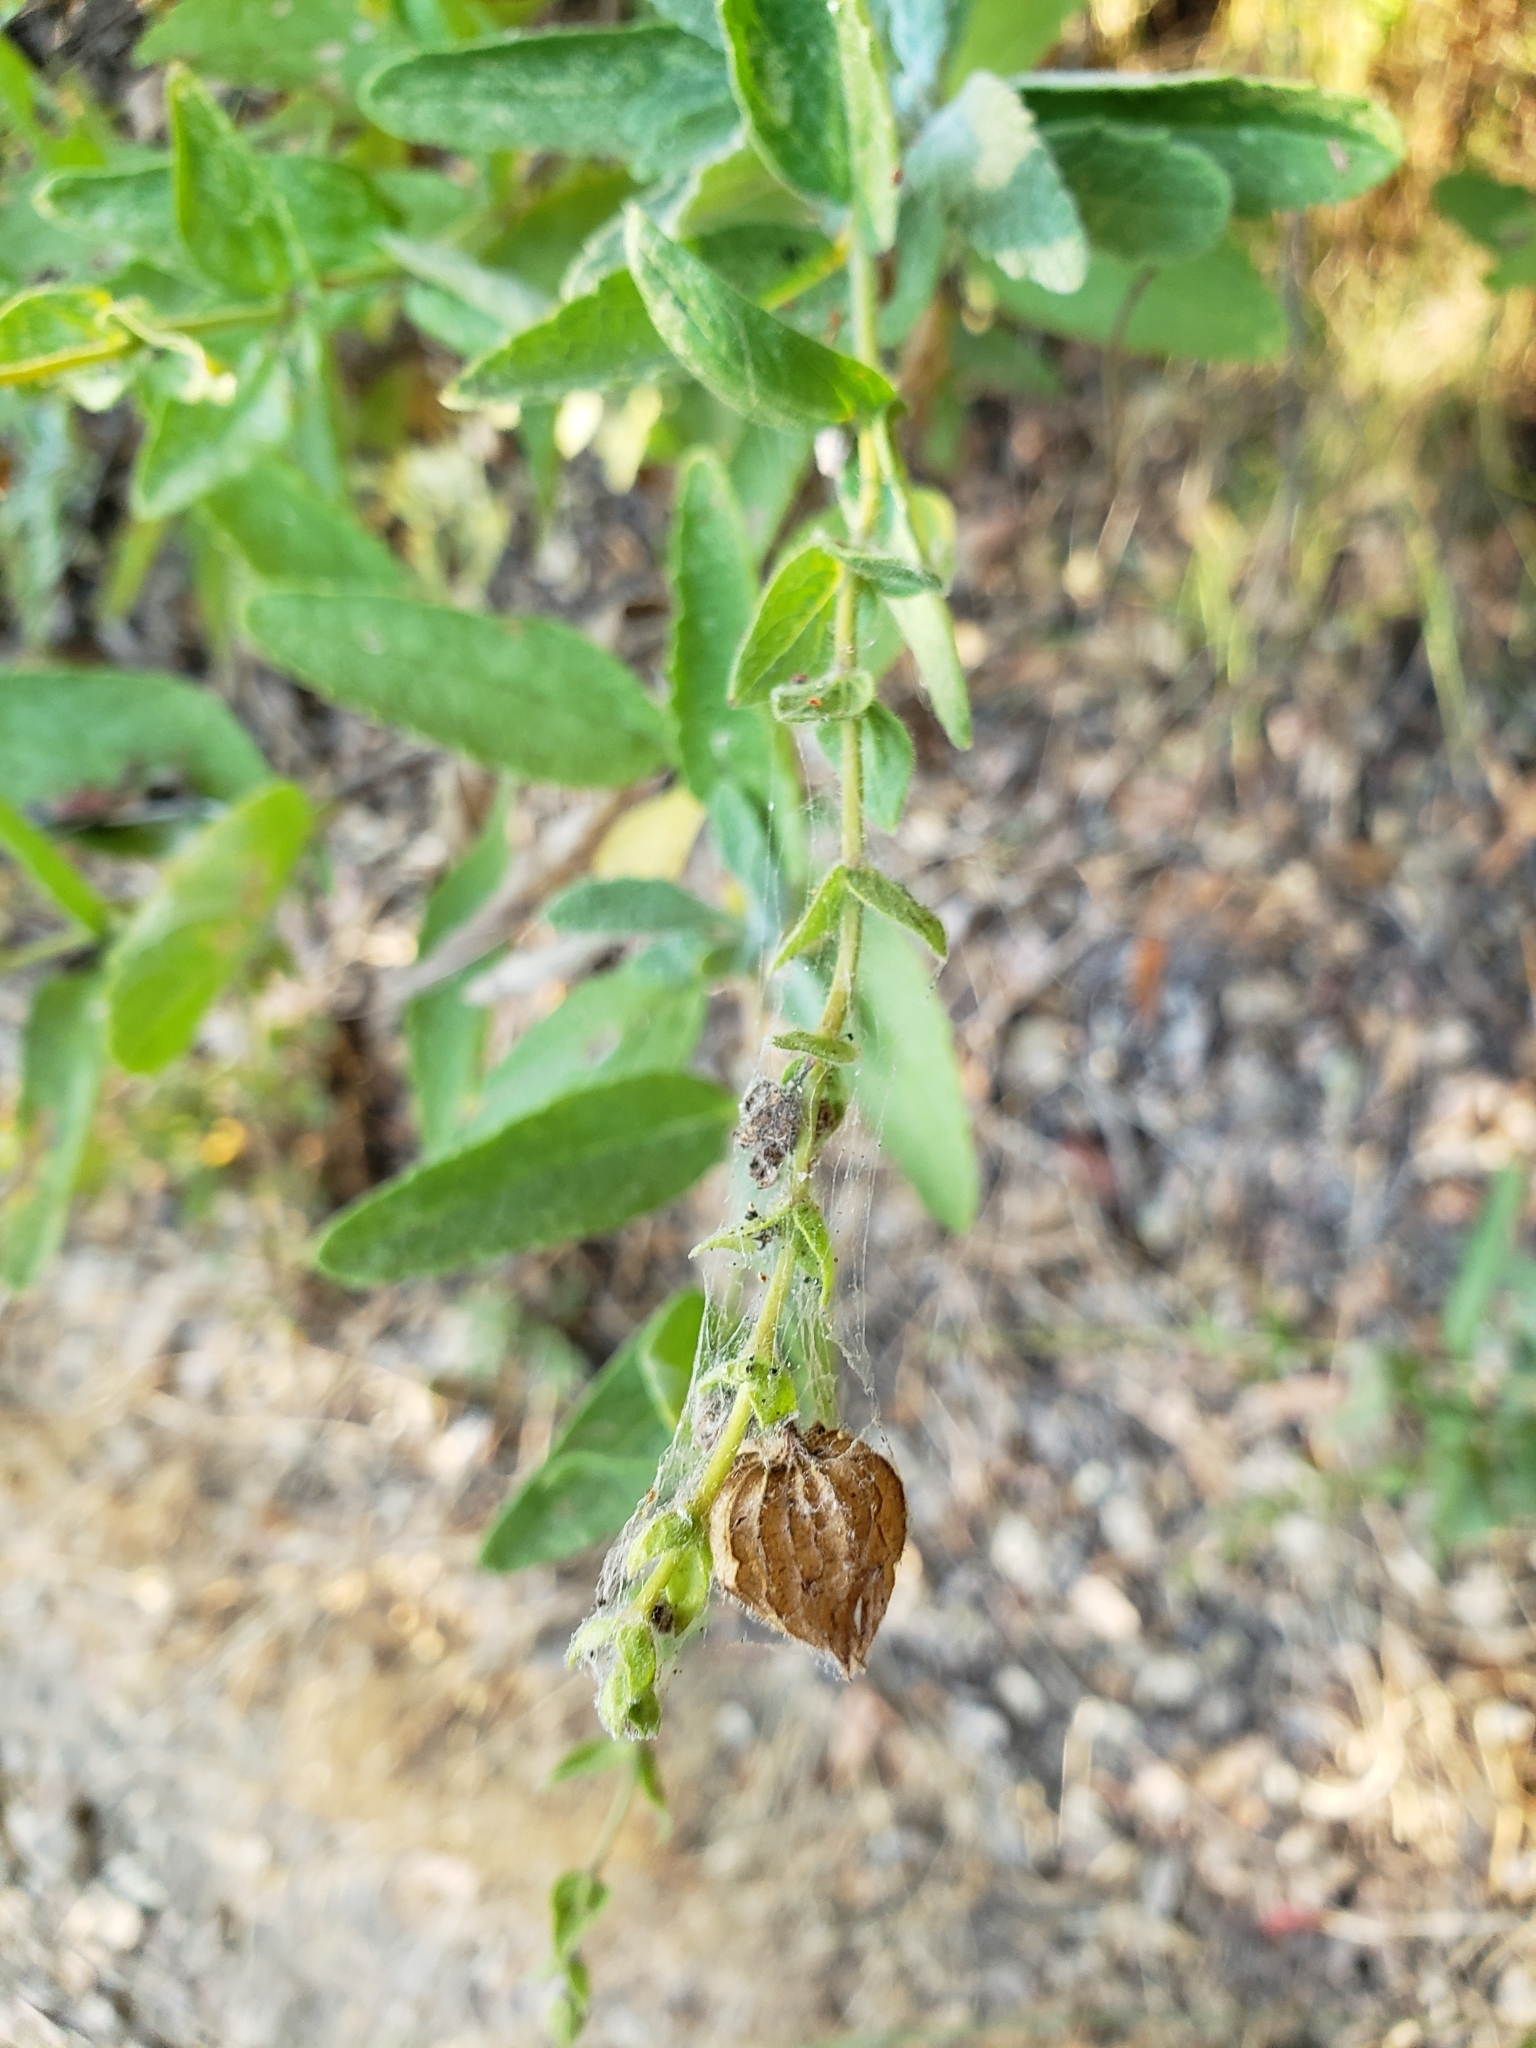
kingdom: Plantae
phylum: Tracheophyta
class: Magnoliopsida
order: Lamiales
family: Lamiaceae
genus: Lepechinia
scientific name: Lepechinia calycina
